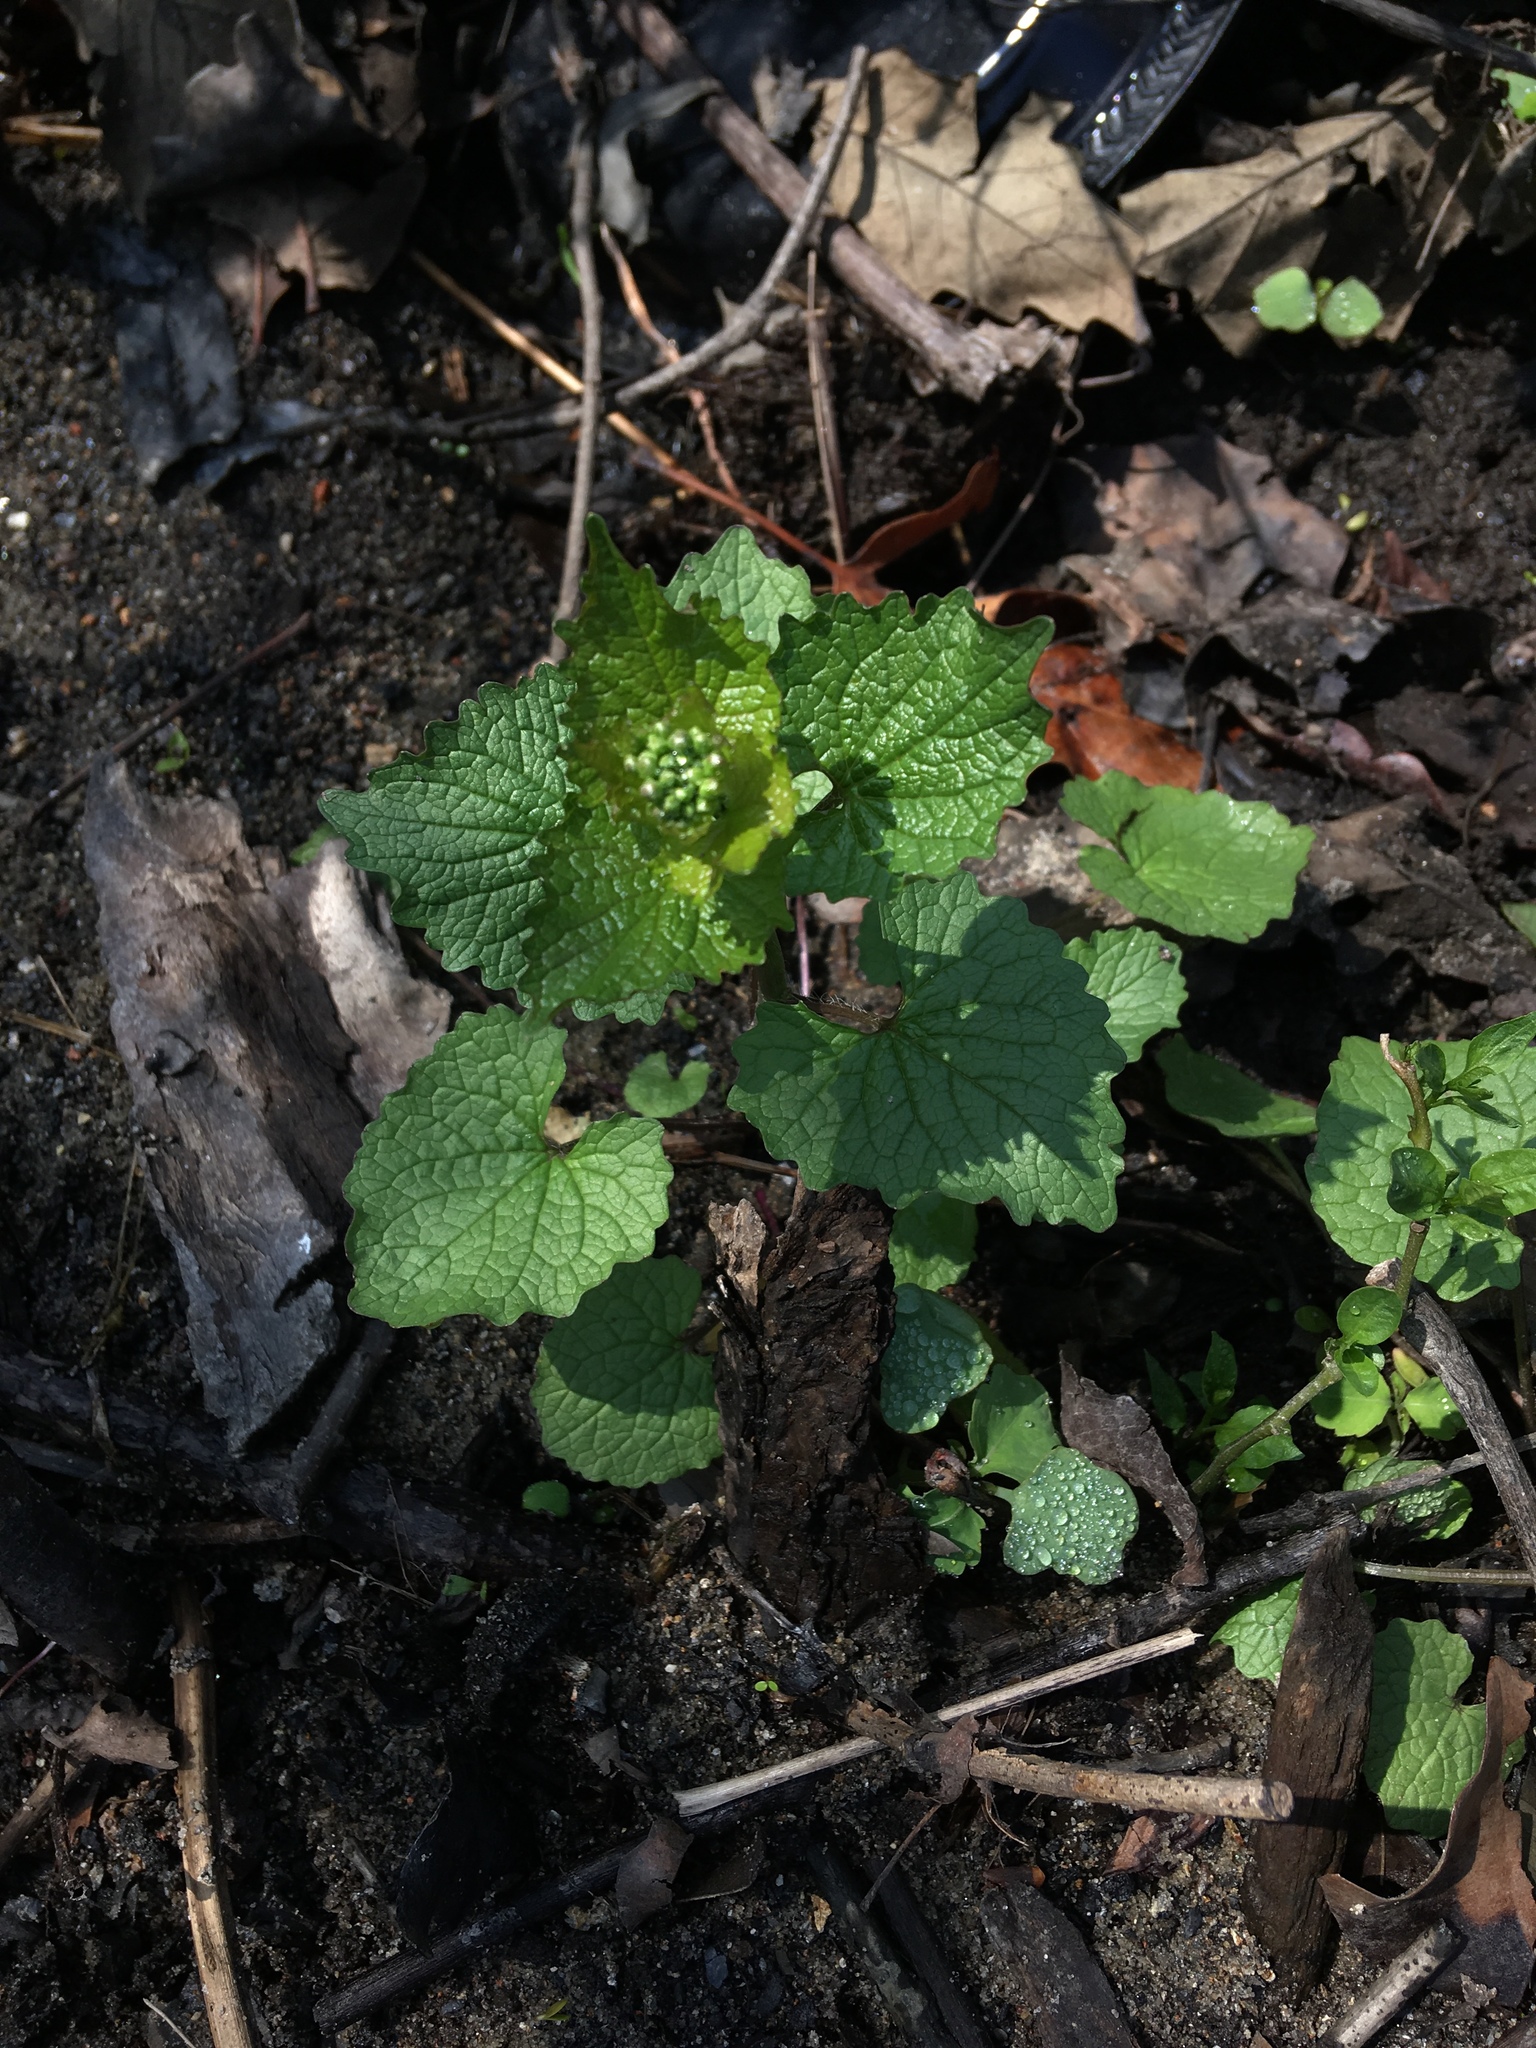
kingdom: Plantae
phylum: Tracheophyta
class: Magnoliopsida
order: Brassicales
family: Brassicaceae
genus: Alliaria
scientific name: Alliaria petiolata
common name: Garlic mustard
